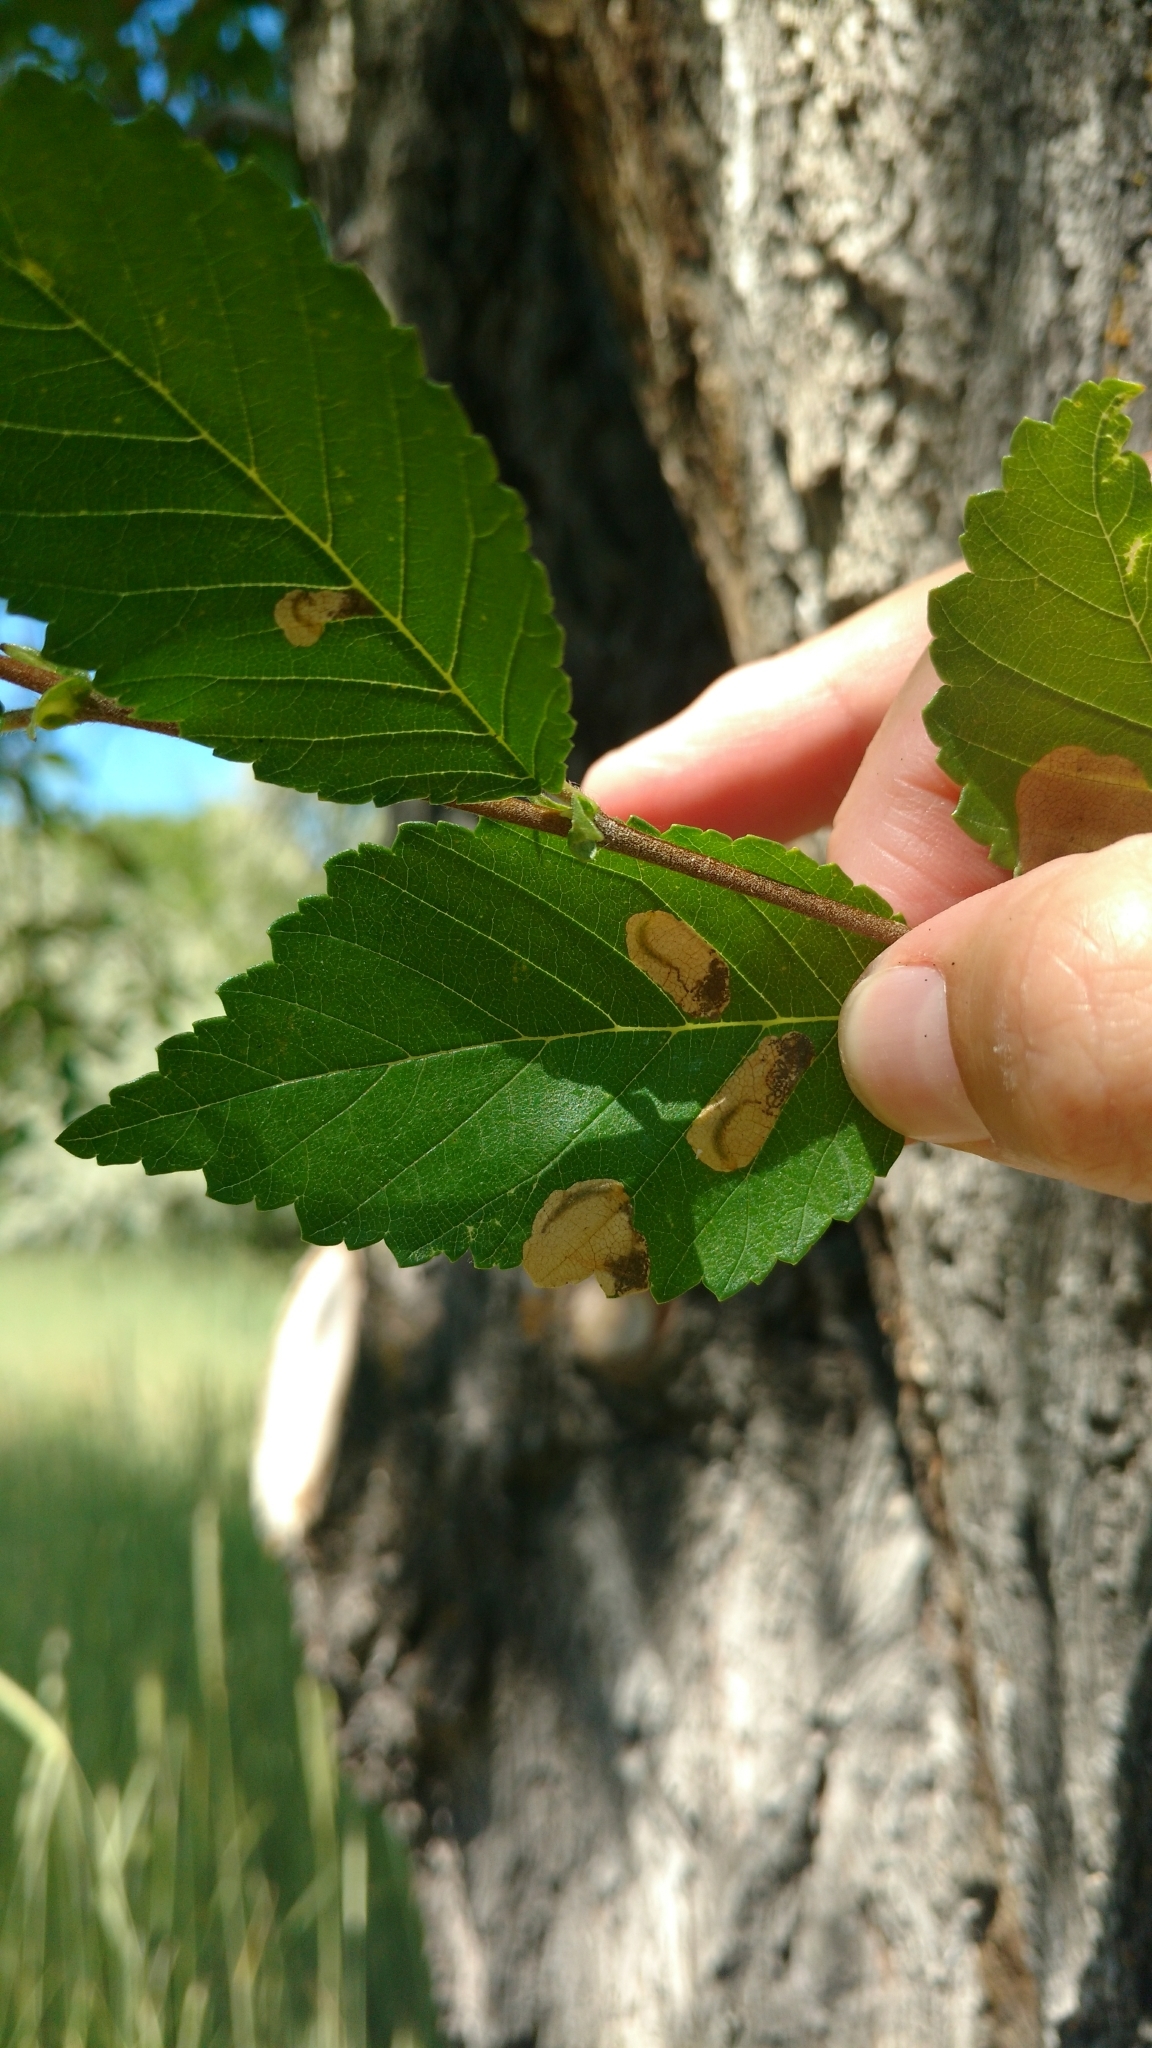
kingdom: Animalia
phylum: Arthropoda
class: Insecta
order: Hymenoptera
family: Tenthredinidae
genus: Fenusa
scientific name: Fenusa ulmi
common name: Elm leafminer
